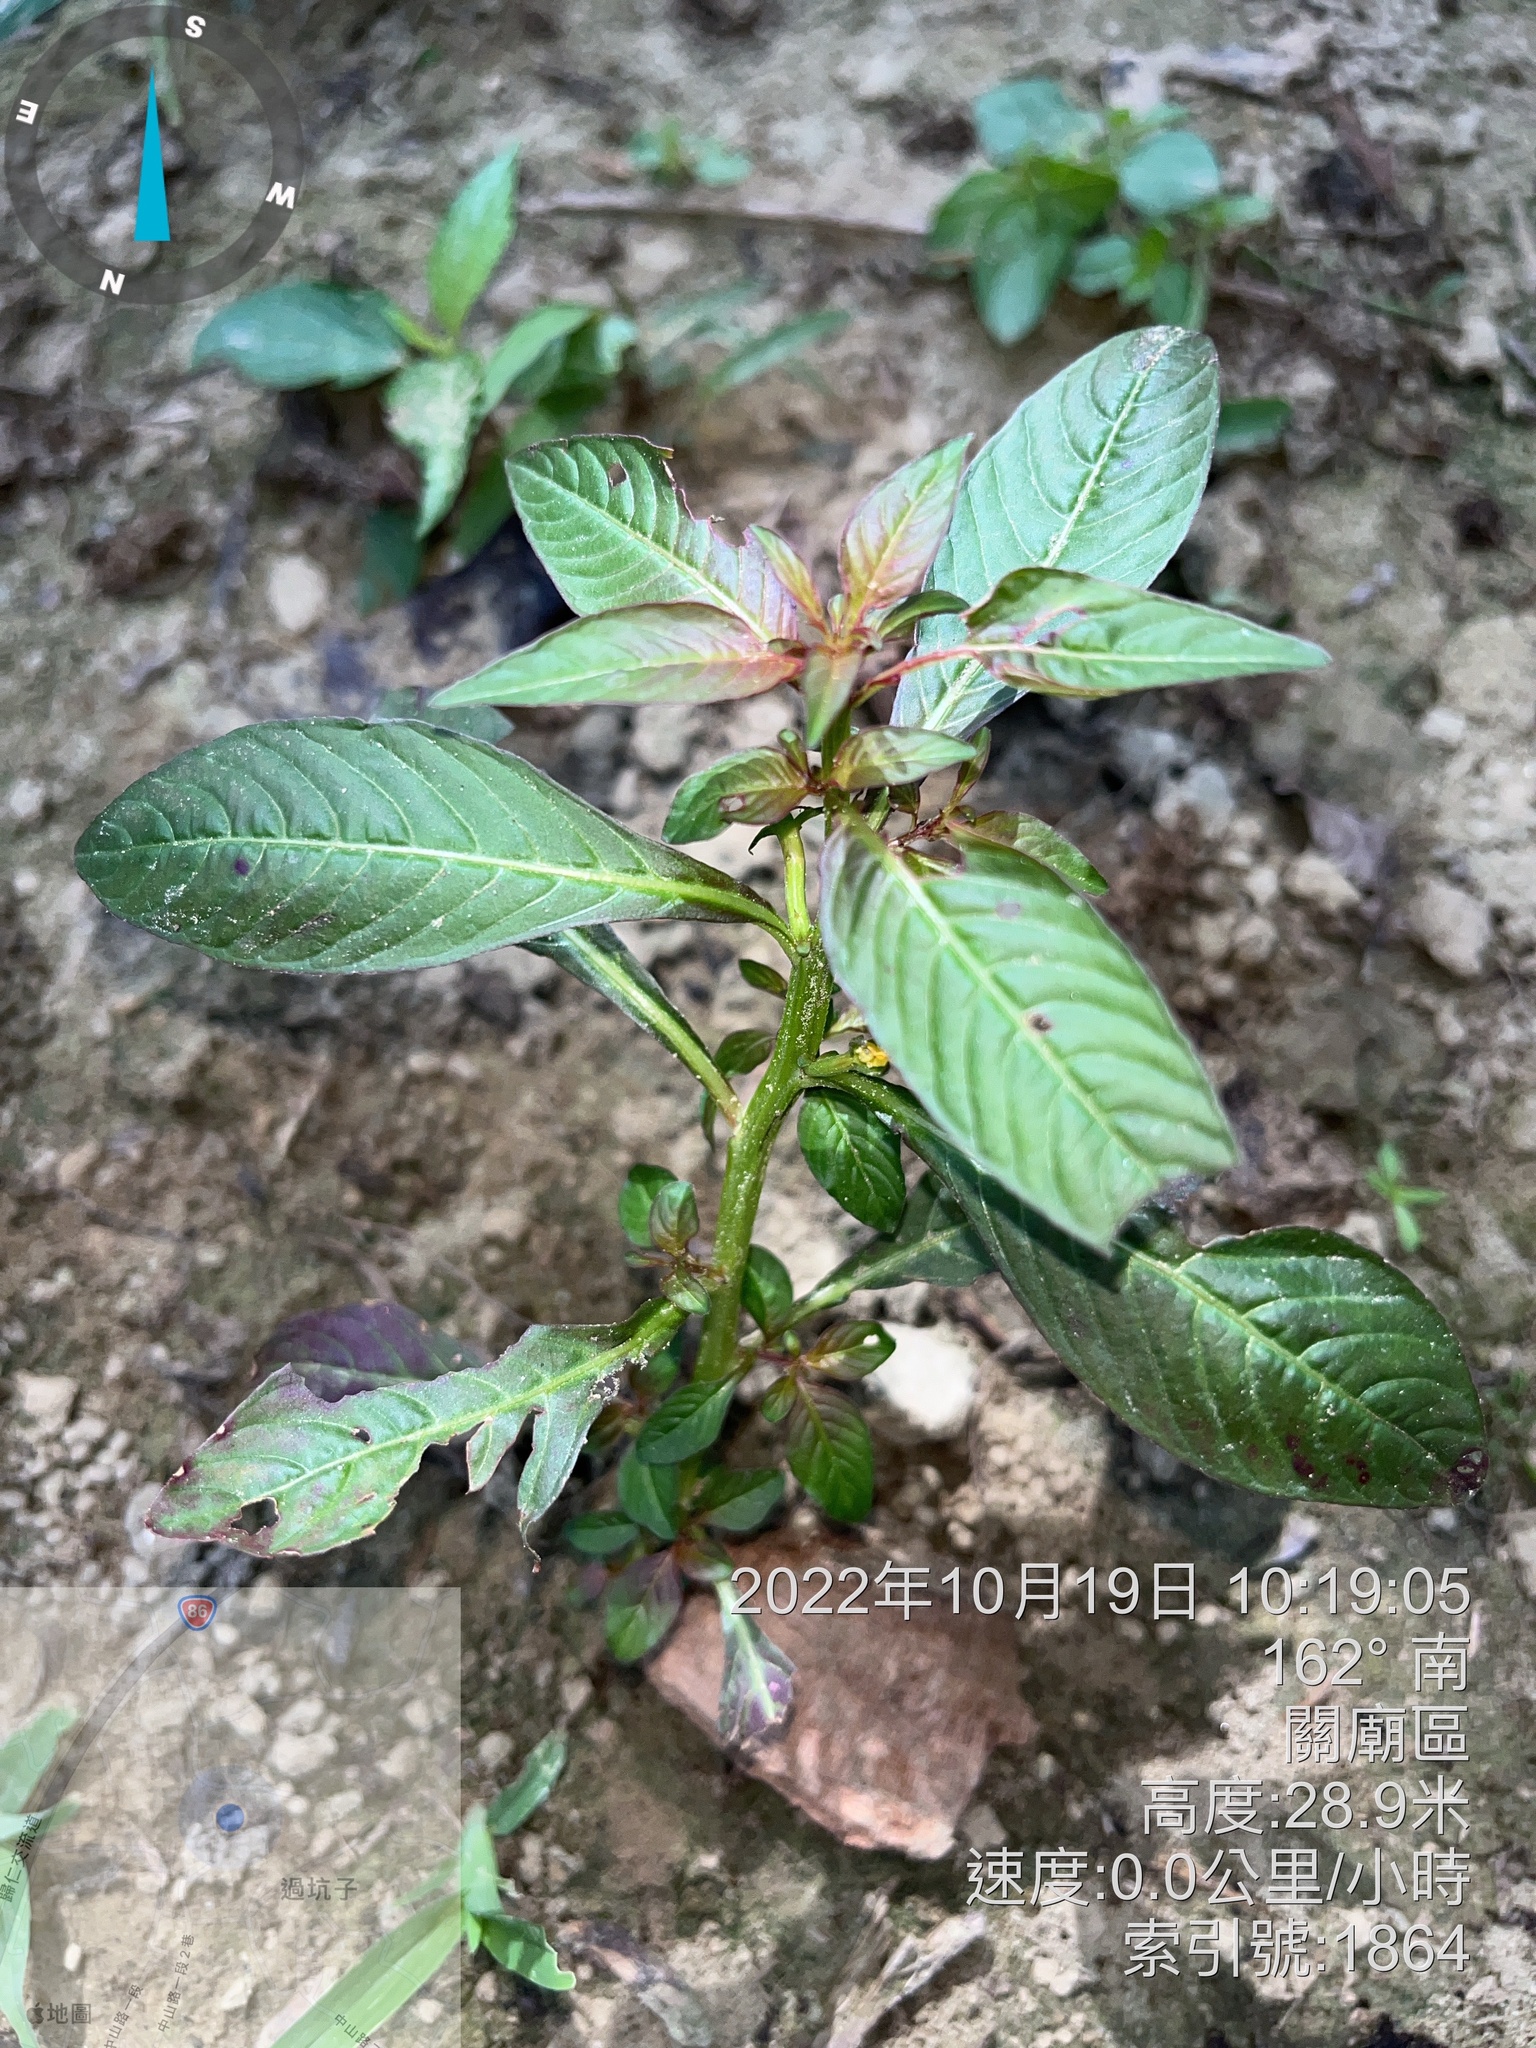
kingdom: Plantae
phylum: Tracheophyta
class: Magnoliopsida
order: Myrtales
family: Onagraceae
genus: Ludwigia
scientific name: Ludwigia hyssopifolia
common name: Linear leaf water primrose
